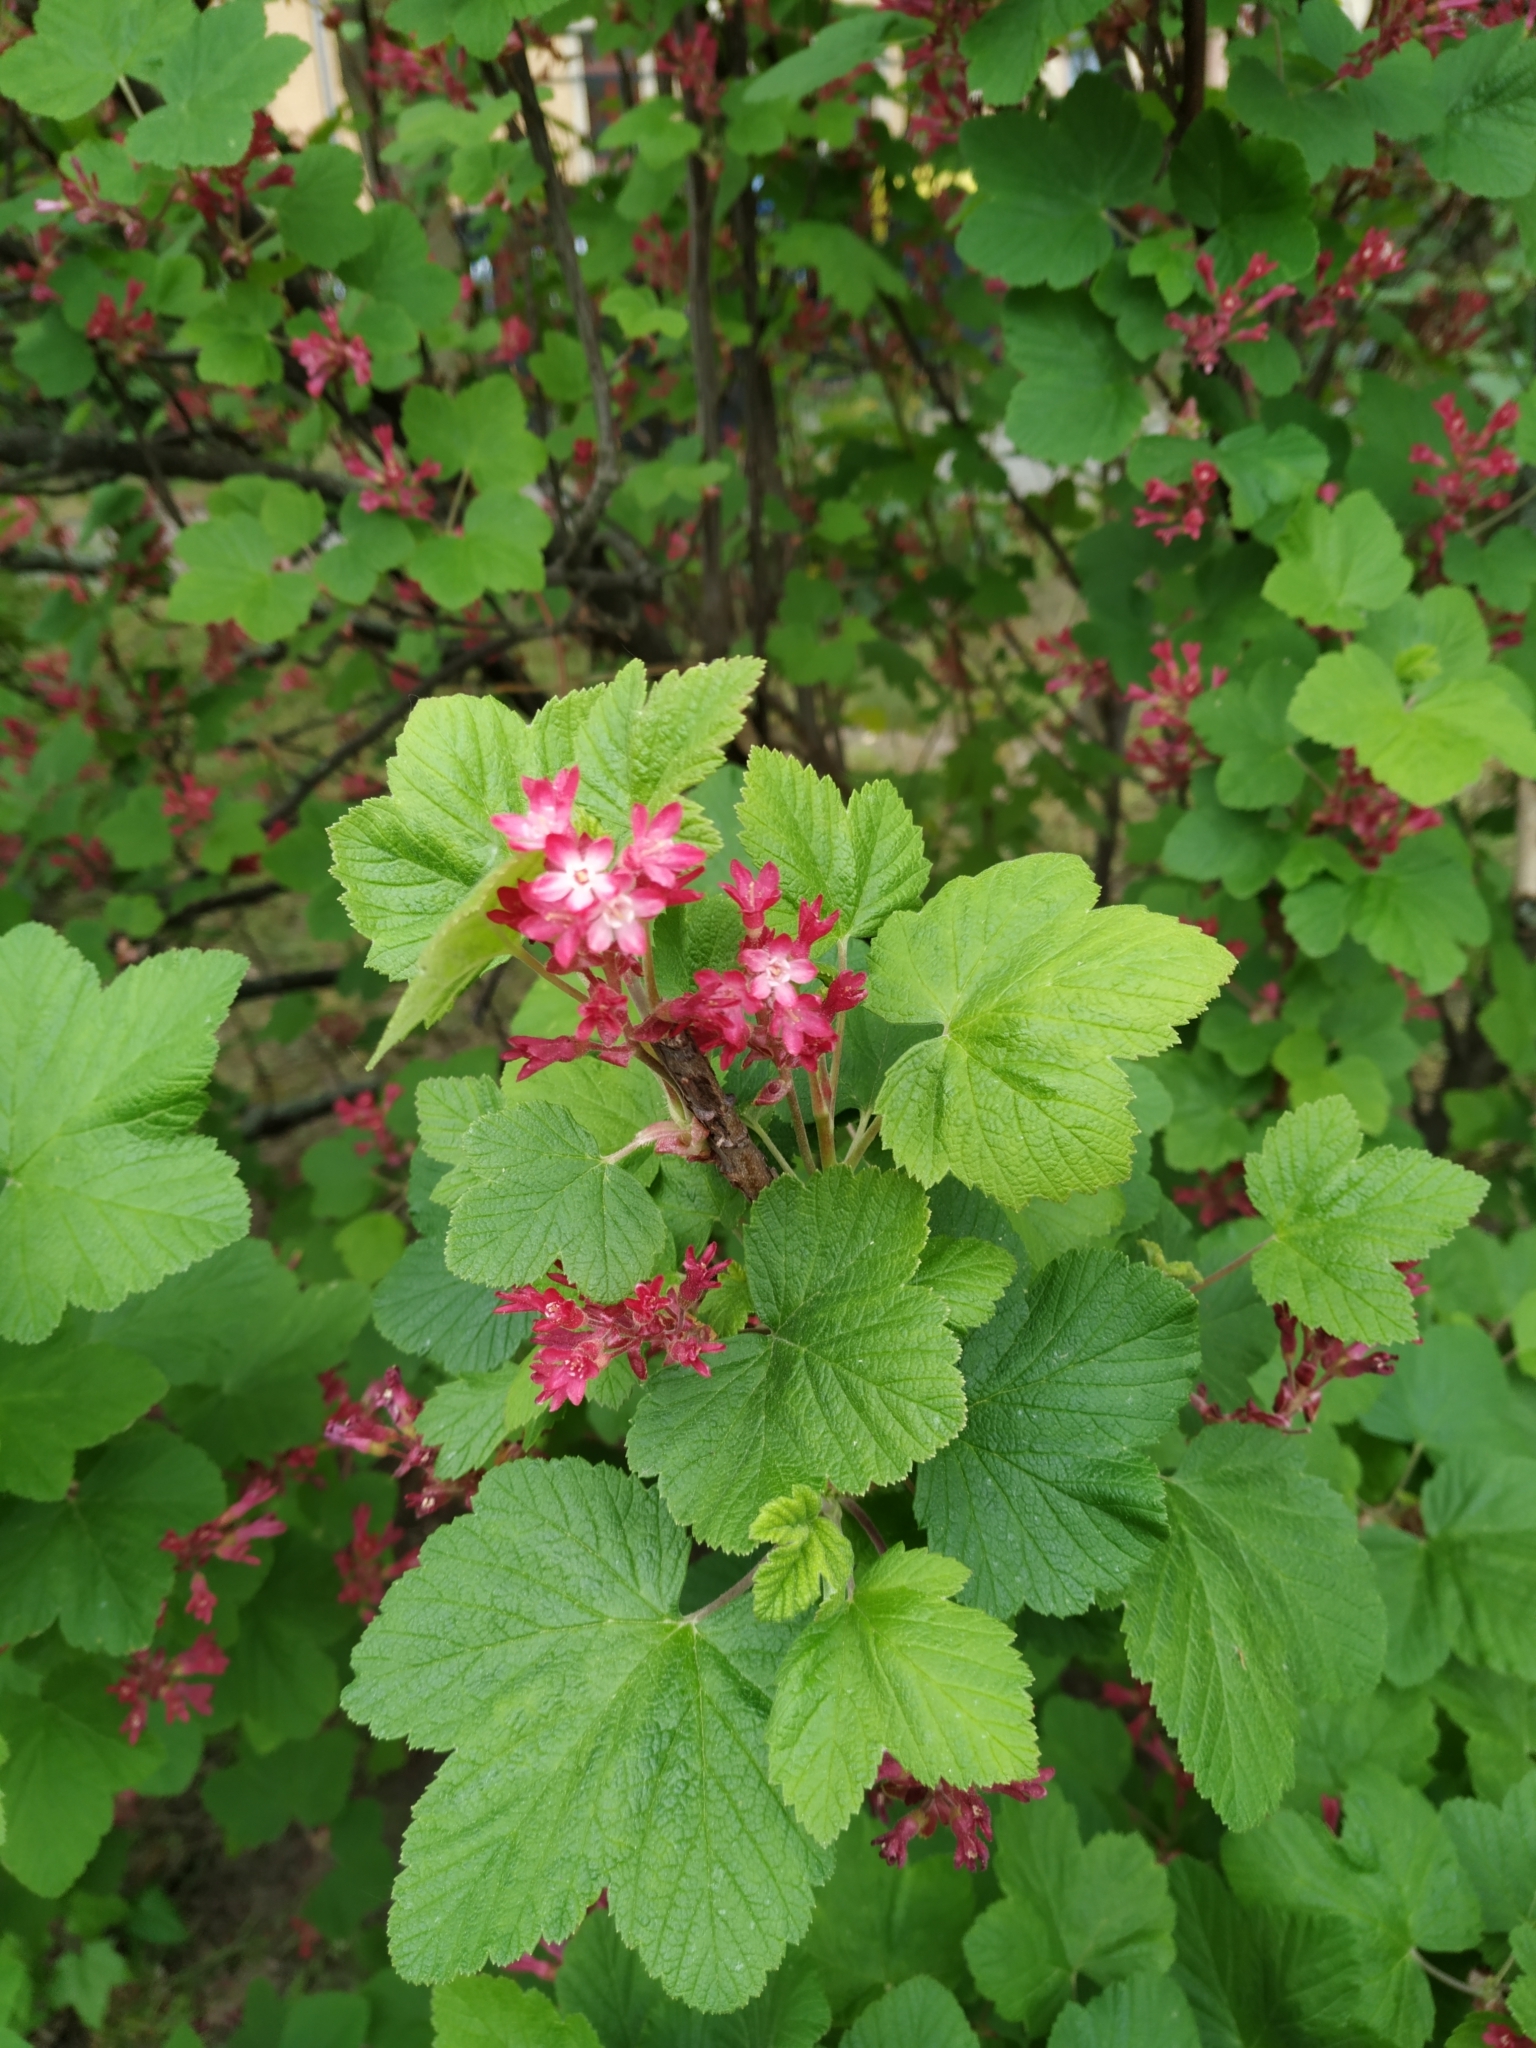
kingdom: Plantae
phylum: Tracheophyta
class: Magnoliopsida
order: Saxifragales
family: Grossulariaceae
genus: Ribes
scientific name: Ribes sanguineum
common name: Flowering currant
